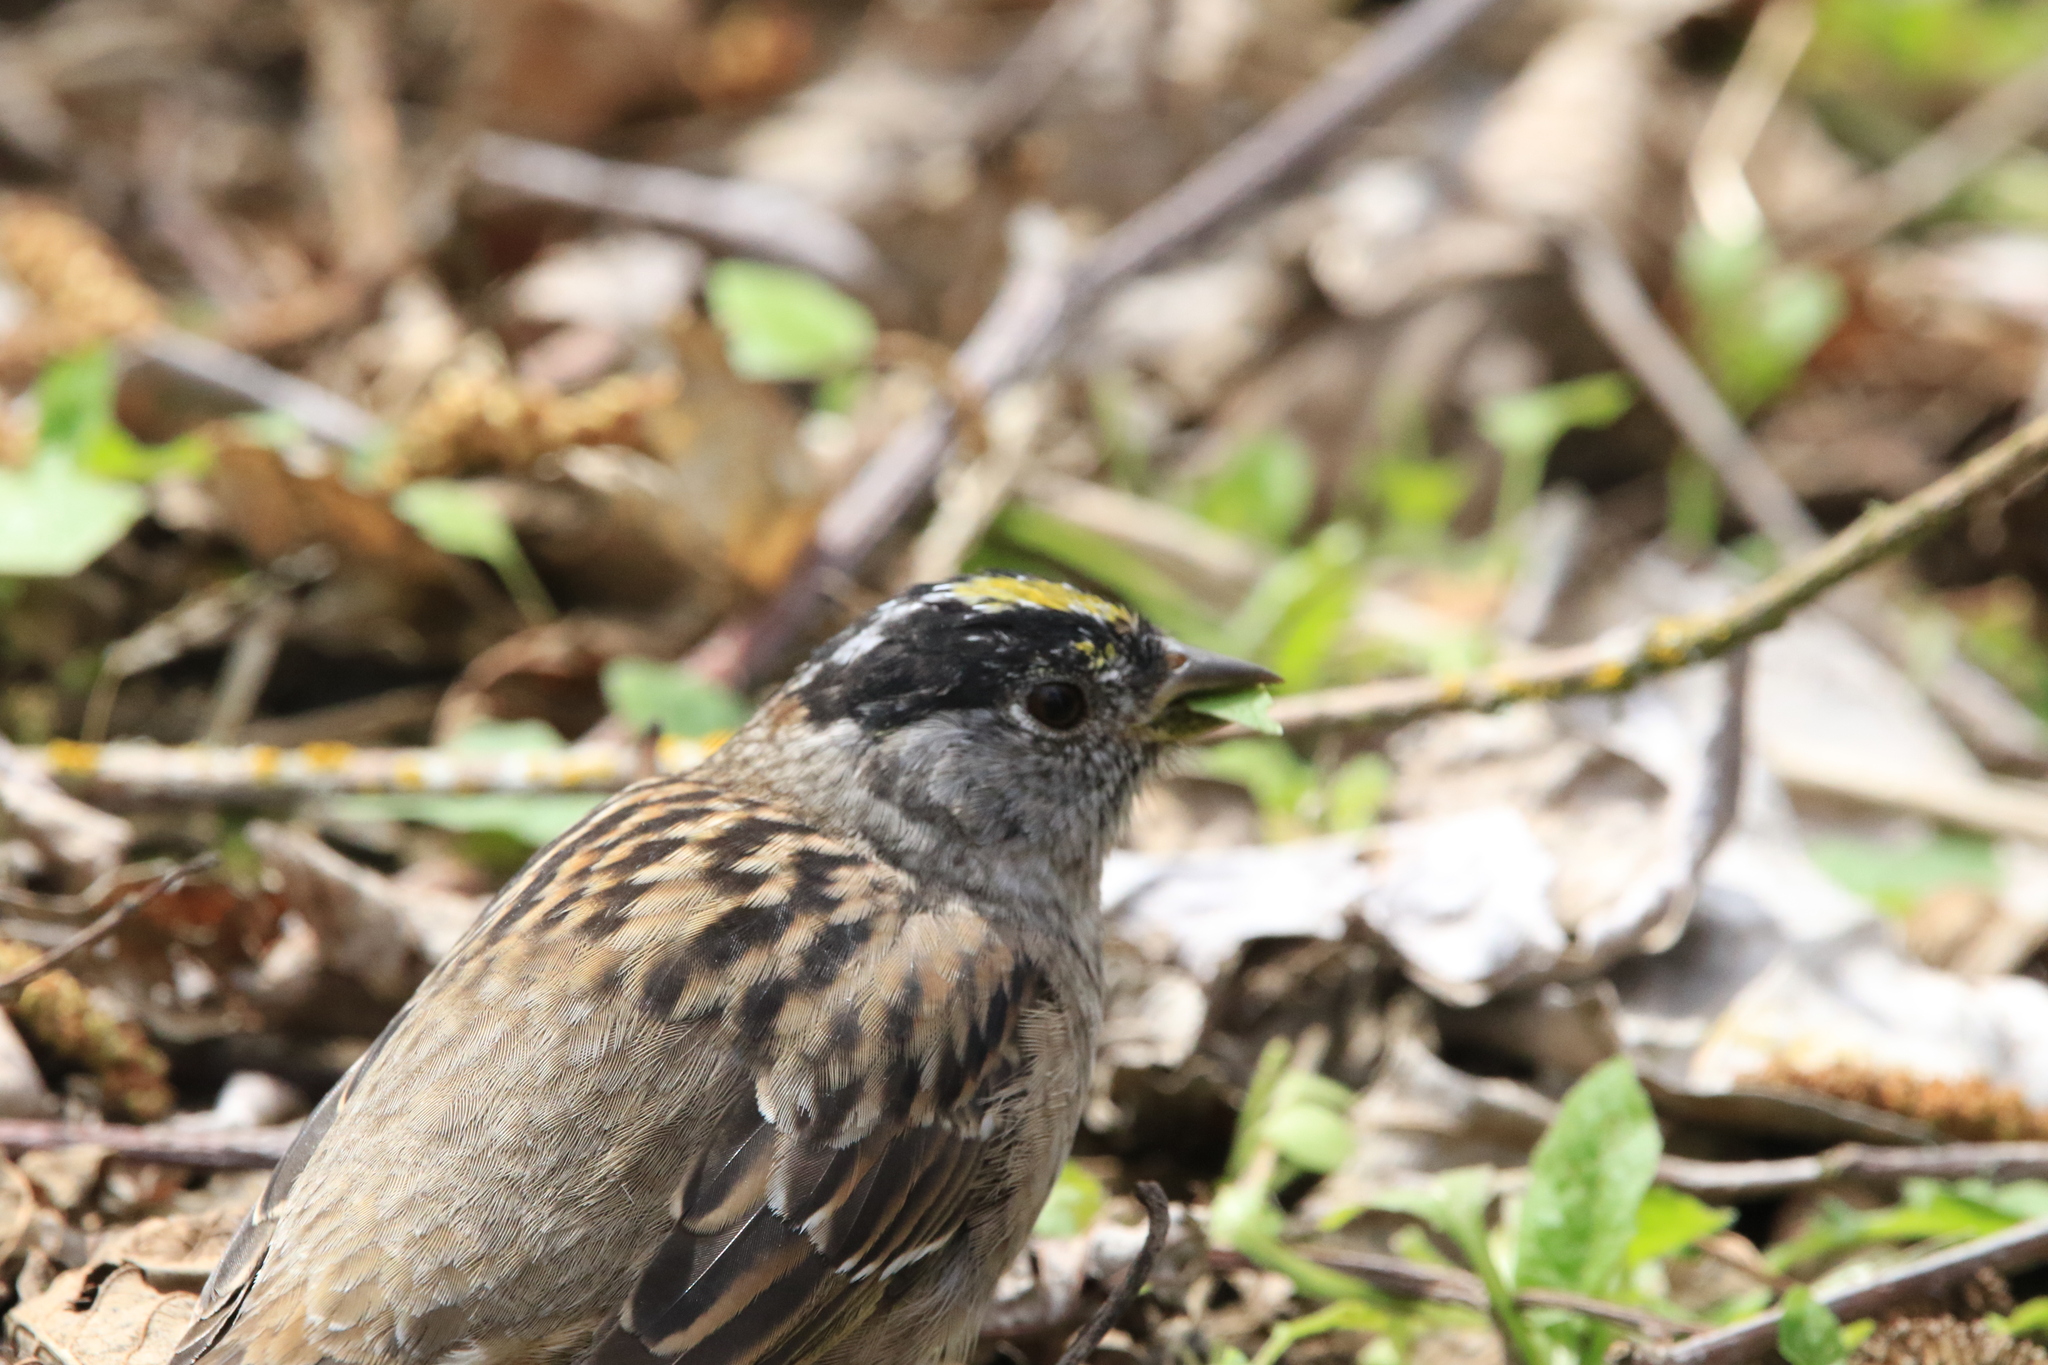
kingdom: Animalia
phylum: Chordata
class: Aves
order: Passeriformes
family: Passerellidae
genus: Zonotrichia
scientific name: Zonotrichia atricapilla
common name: Golden-crowned sparrow
